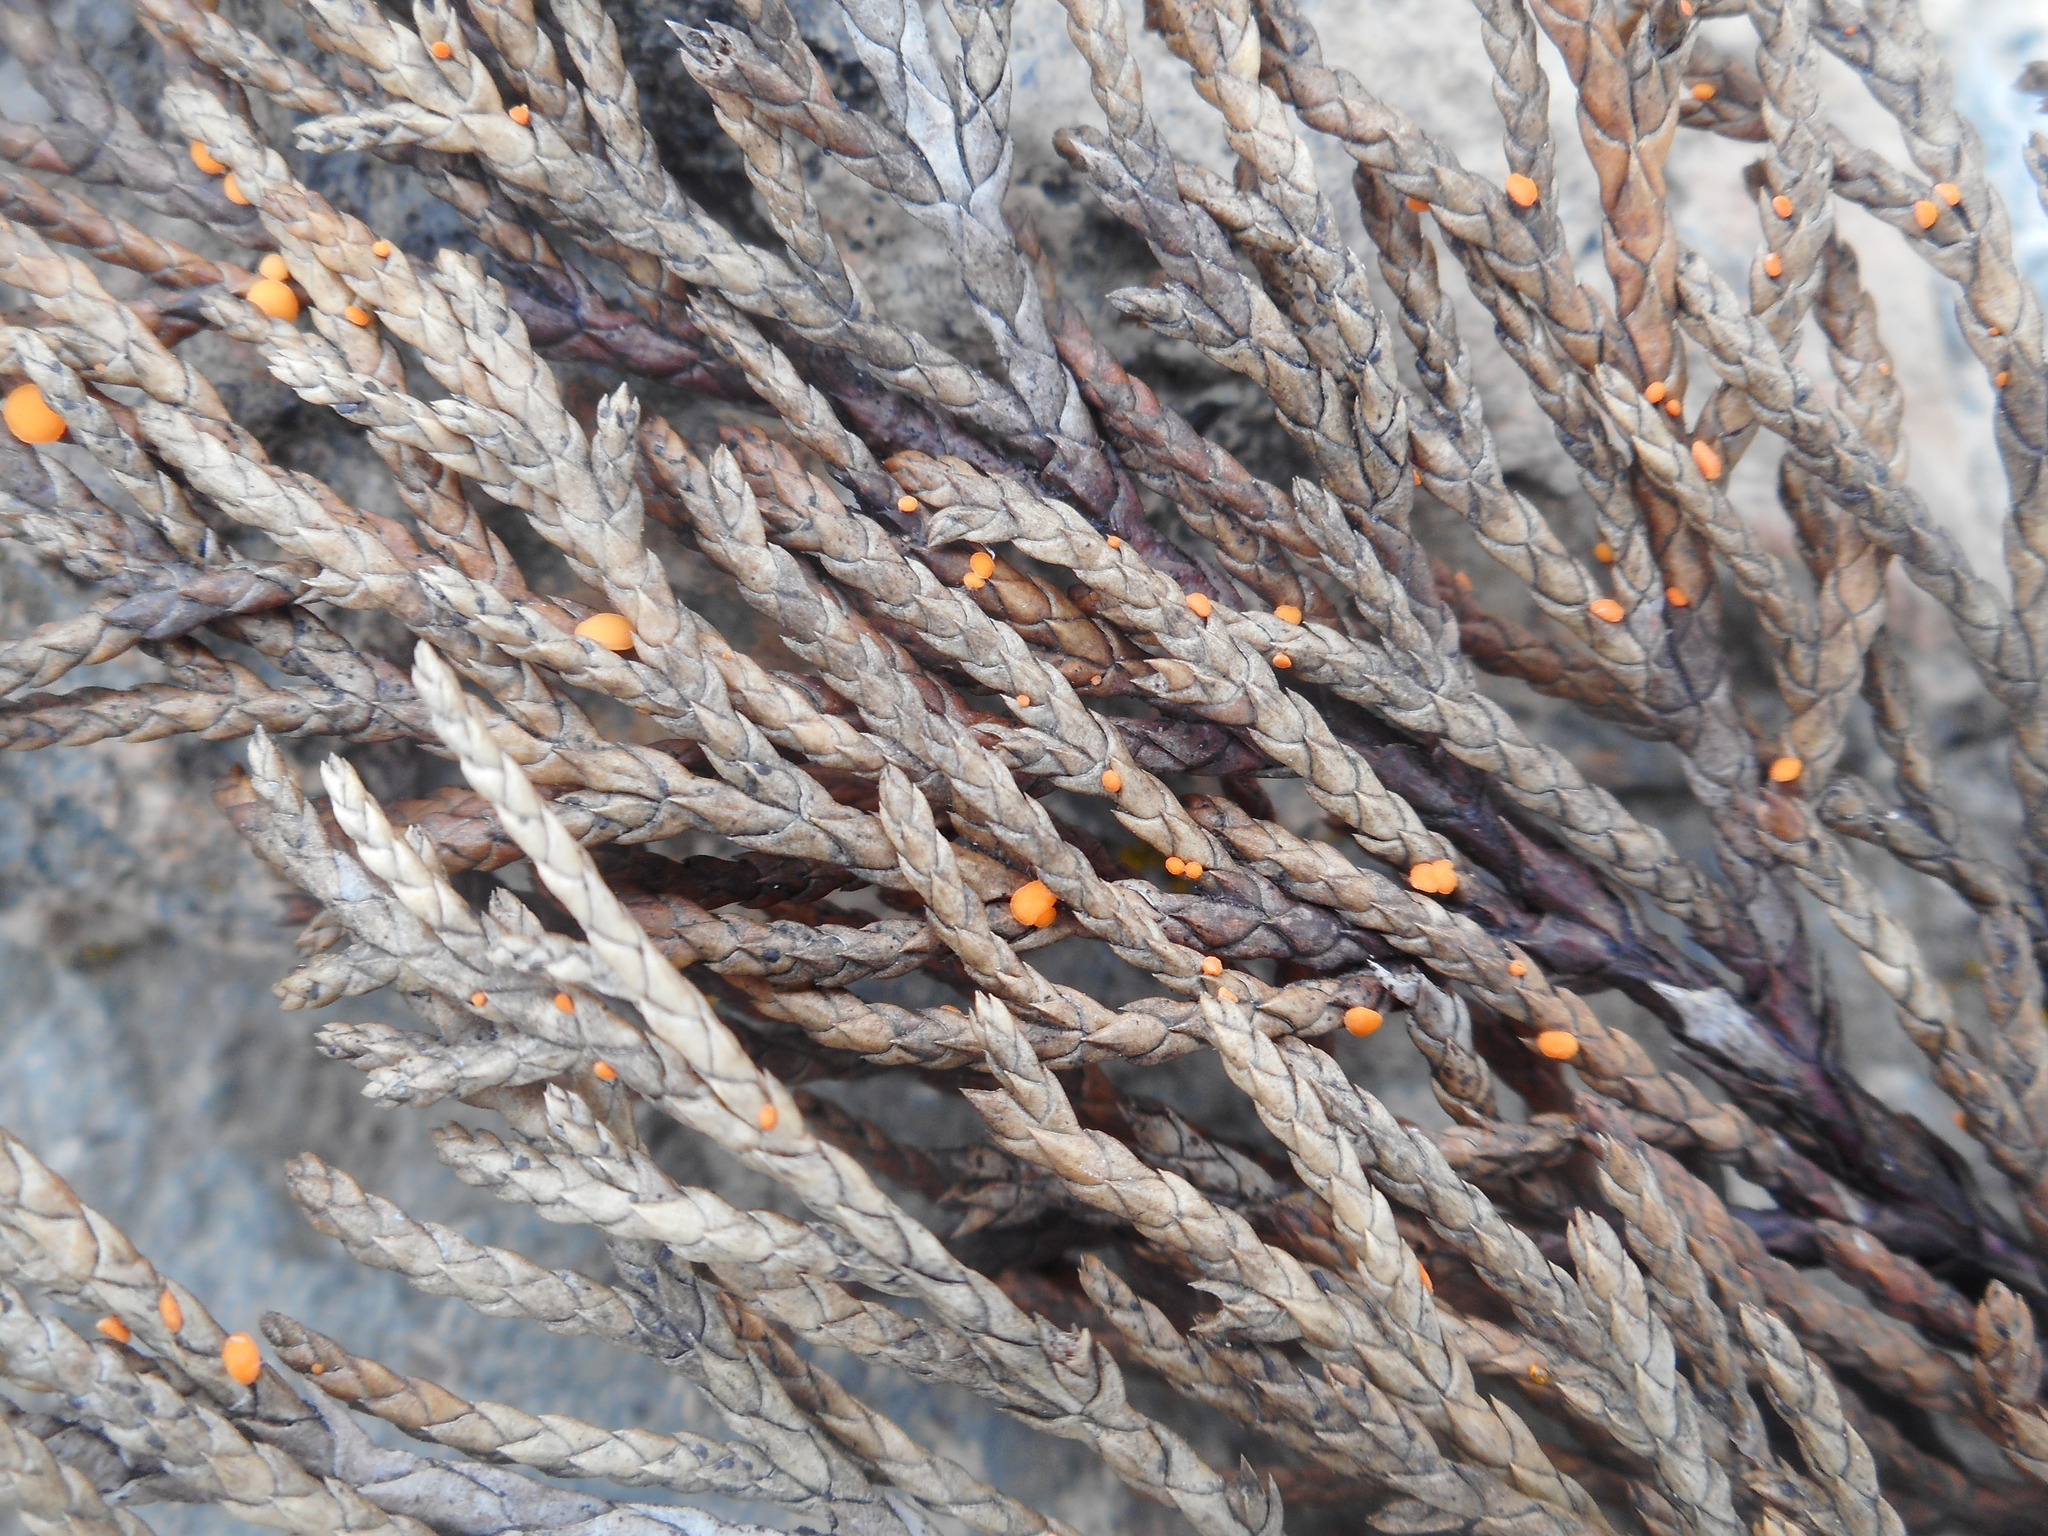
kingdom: Fungi
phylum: Ascomycota
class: Pezizomycetes
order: Pezizales
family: Sarcoscyphaceae
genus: Pithya
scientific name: Pithya cupressina
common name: Juniper disco
